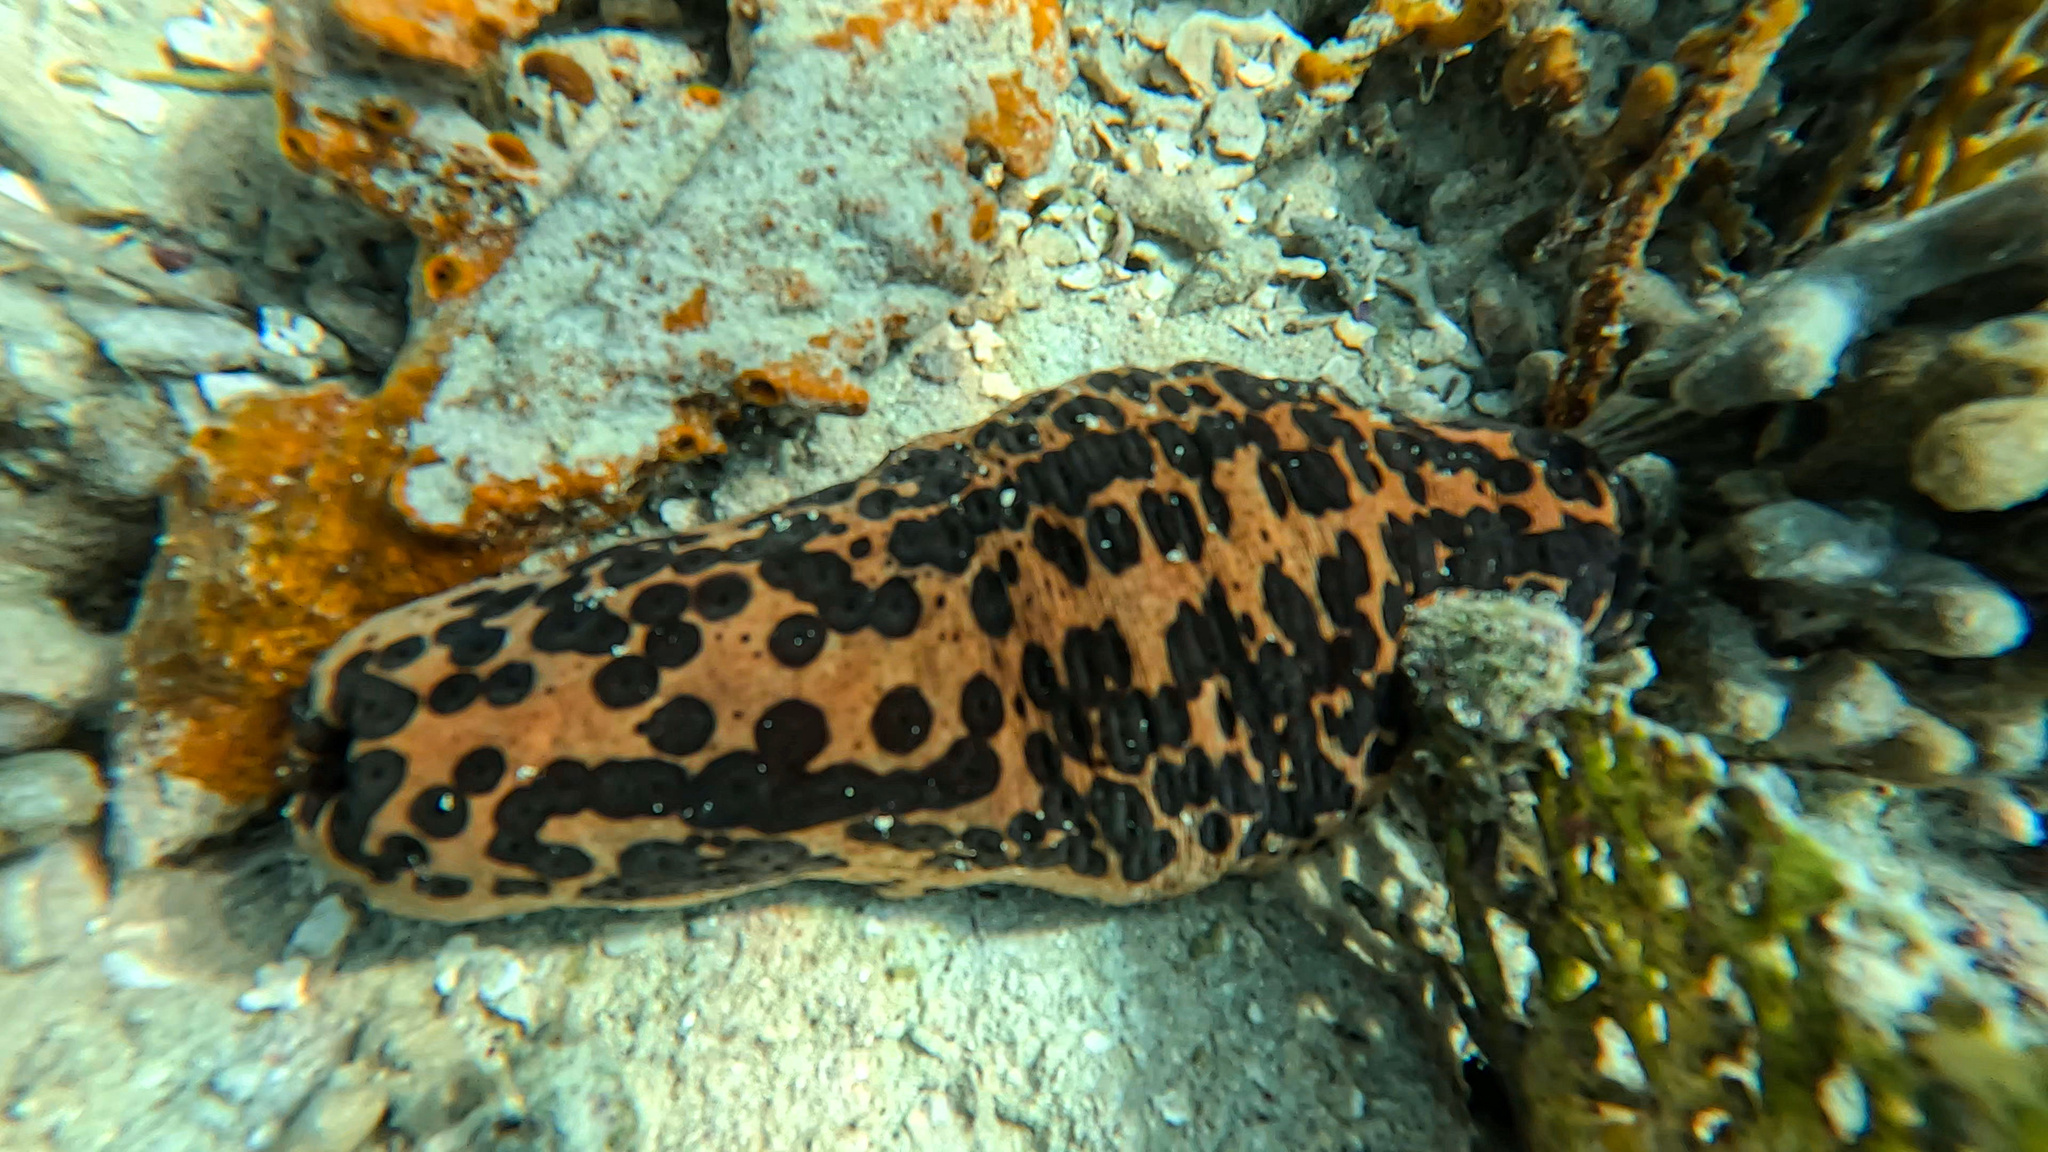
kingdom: Animalia
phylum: Echinodermata
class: Holothuroidea
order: Synallactida
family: Stichopodidae
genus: Isostichopus
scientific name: Isostichopus badionotus
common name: Chocolate chip cucumber
